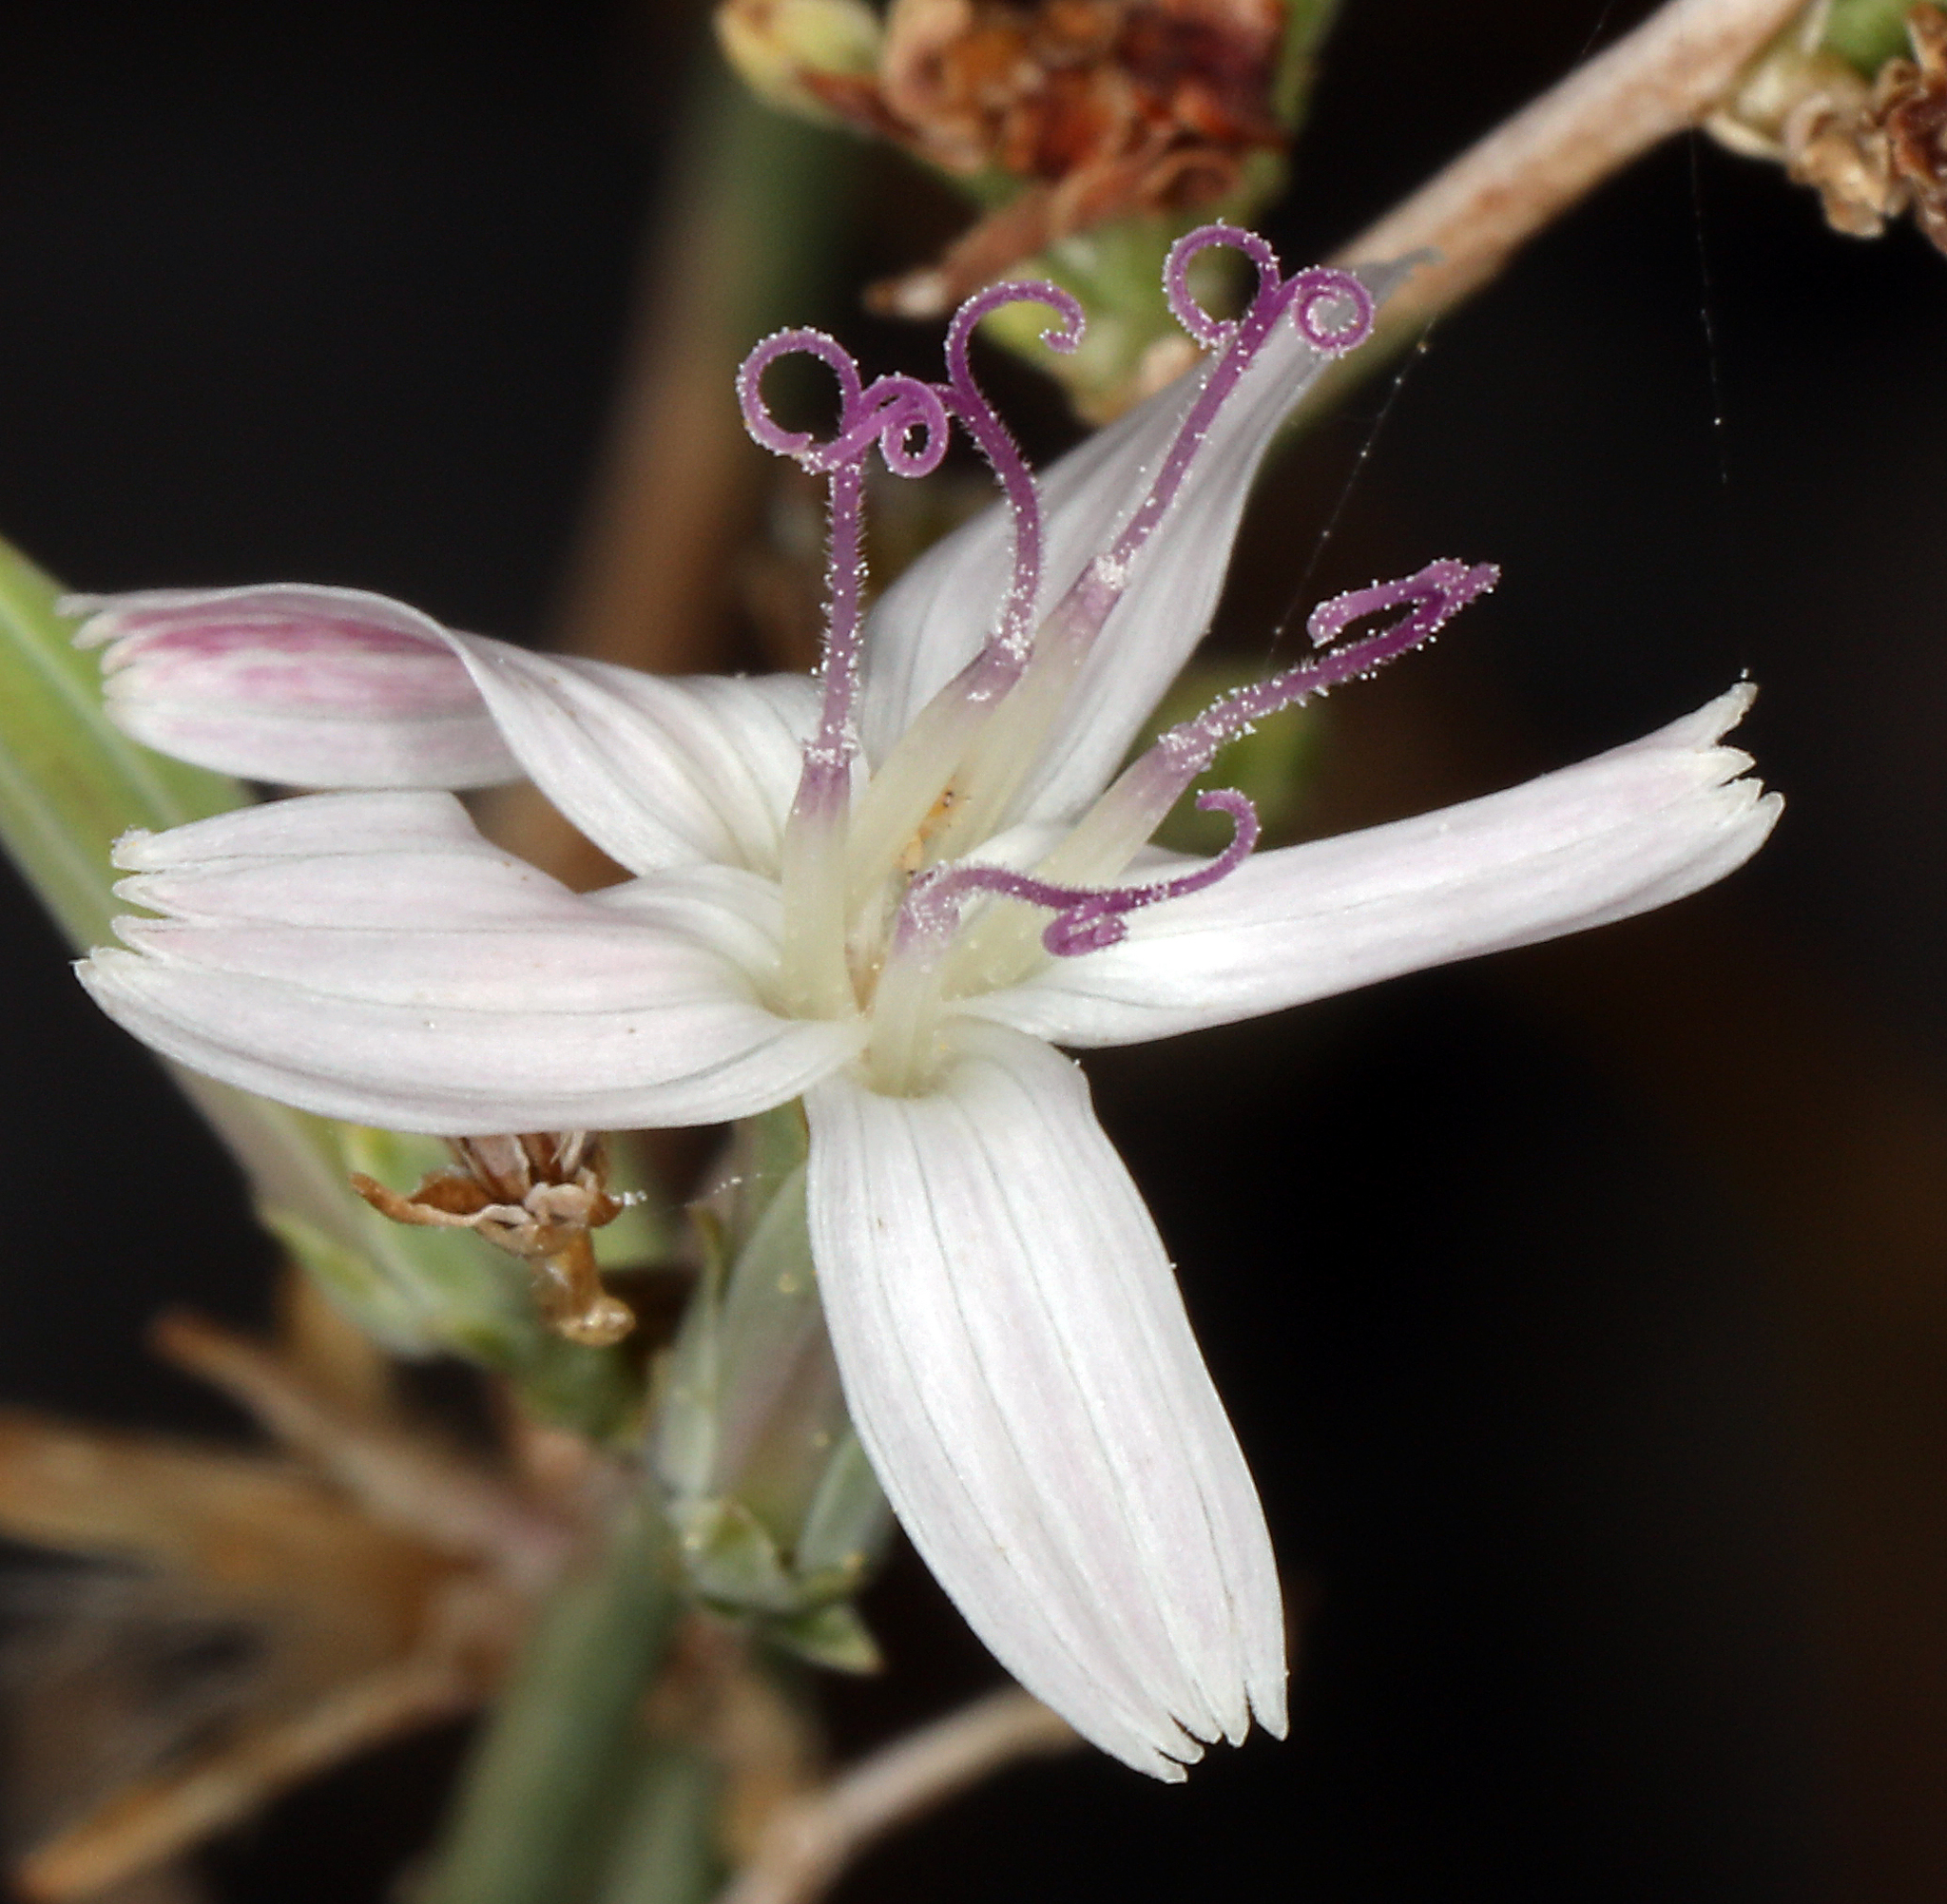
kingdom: Plantae
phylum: Tracheophyta
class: Magnoliopsida
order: Asterales
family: Asteraceae
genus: Stephanomeria
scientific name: Stephanomeria pauciflora
